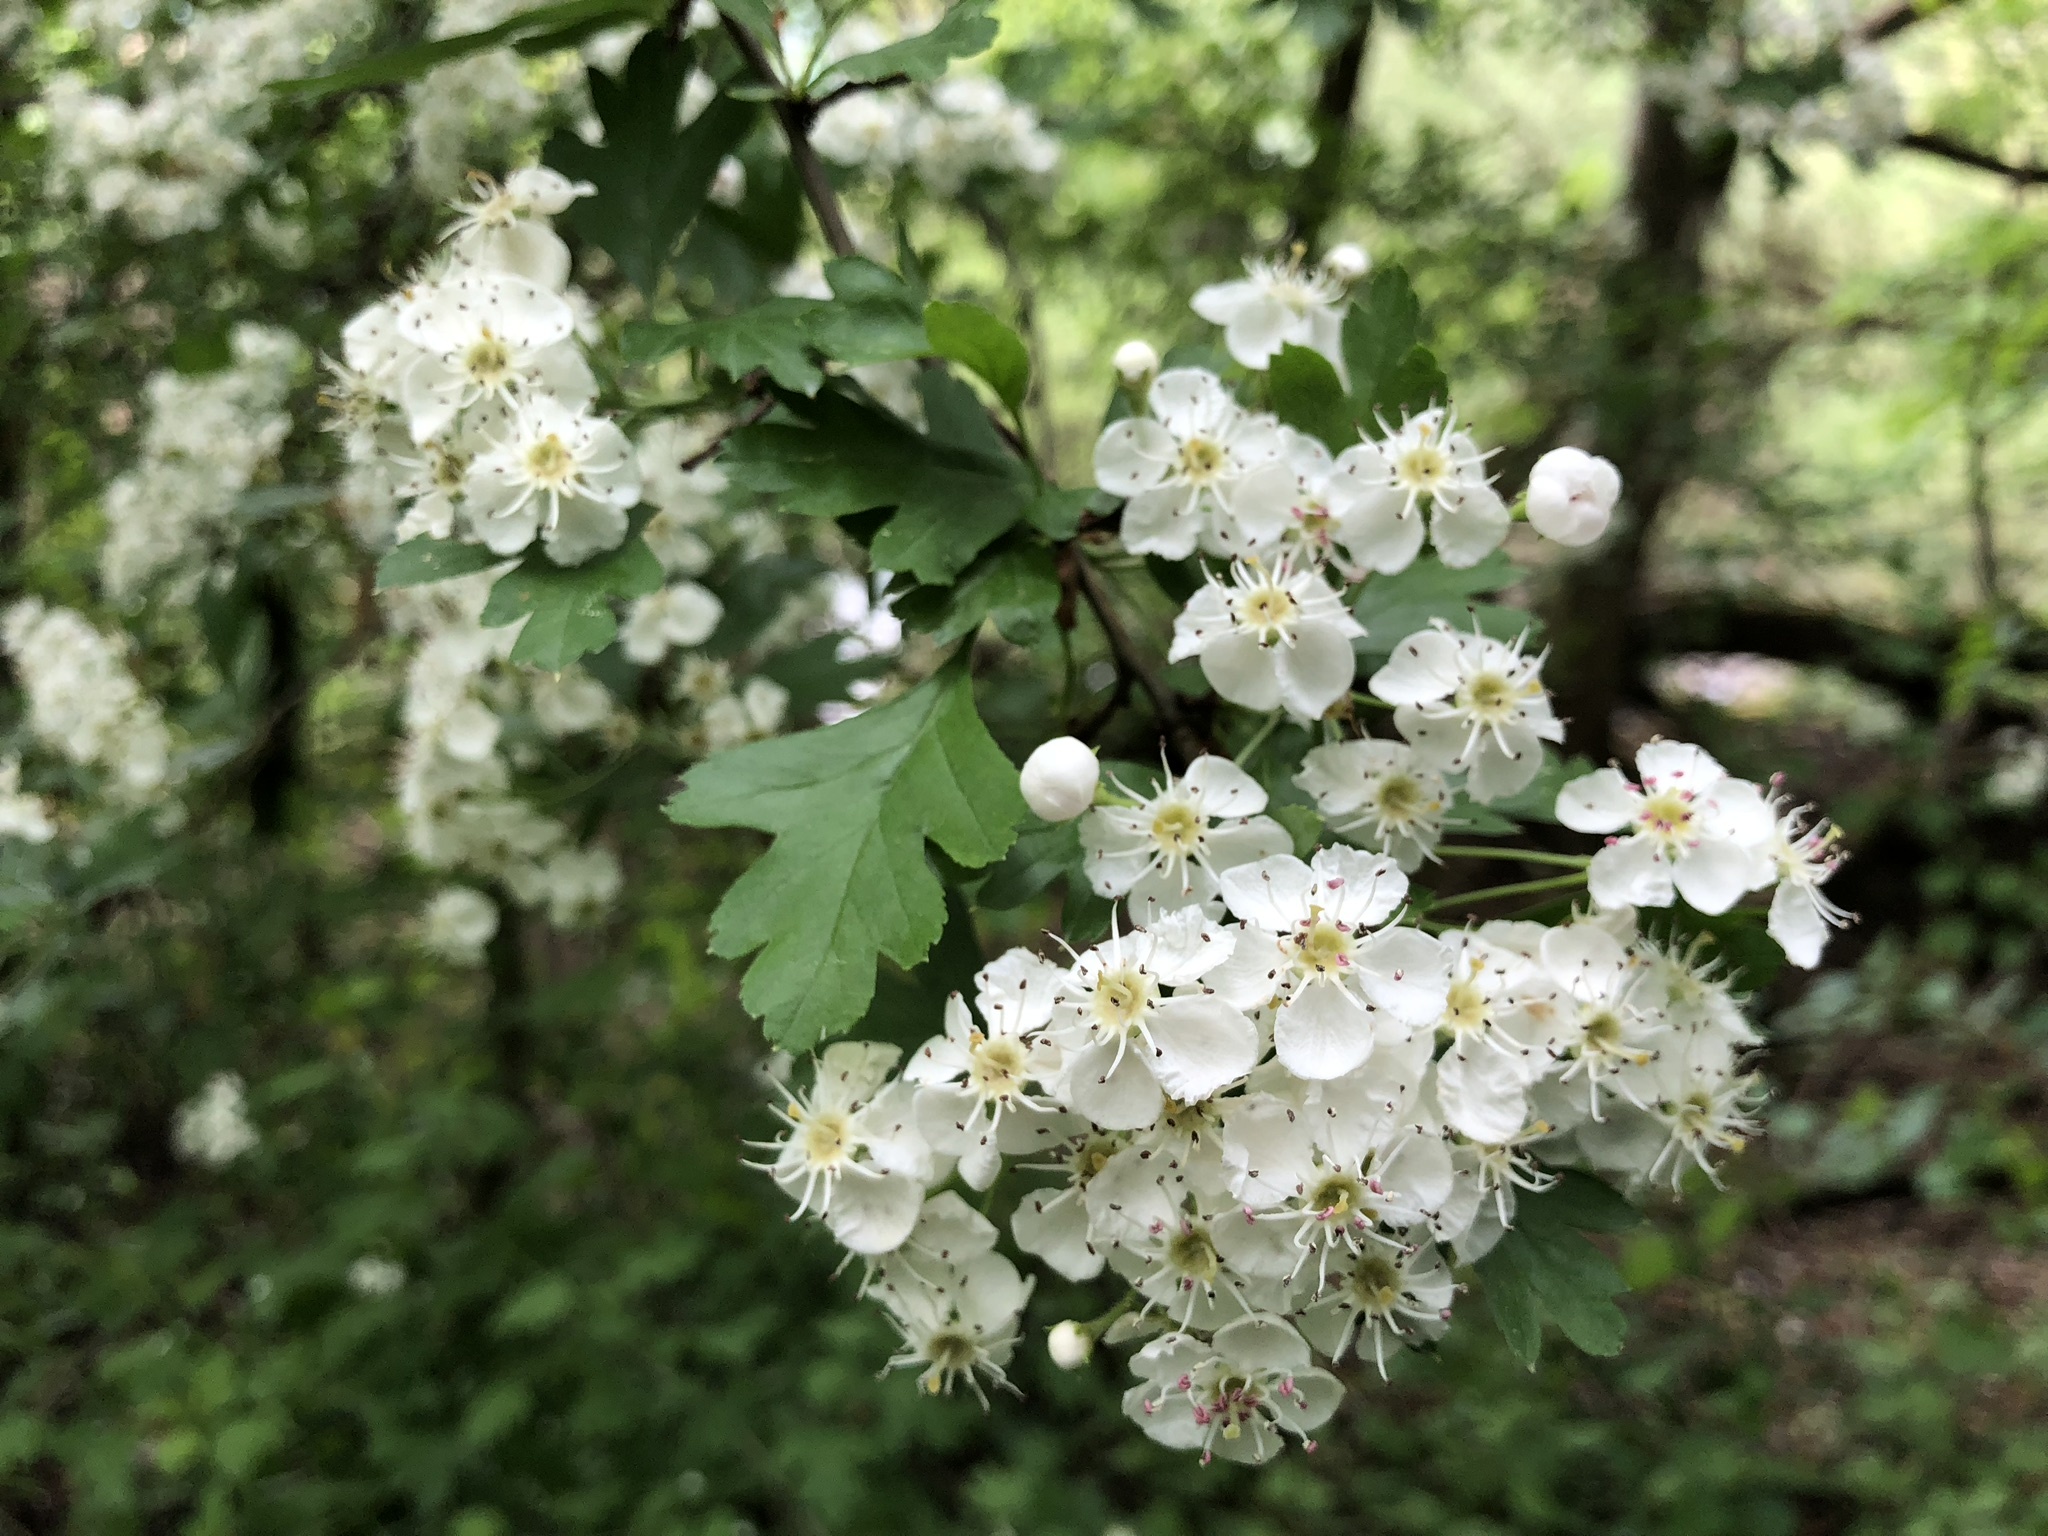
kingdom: Plantae
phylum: Tracheophyta
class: Magnoliopsida
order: Rosales
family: Rosaceae
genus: Crataegus
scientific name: Crataegus monogyna
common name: Hawthorn
